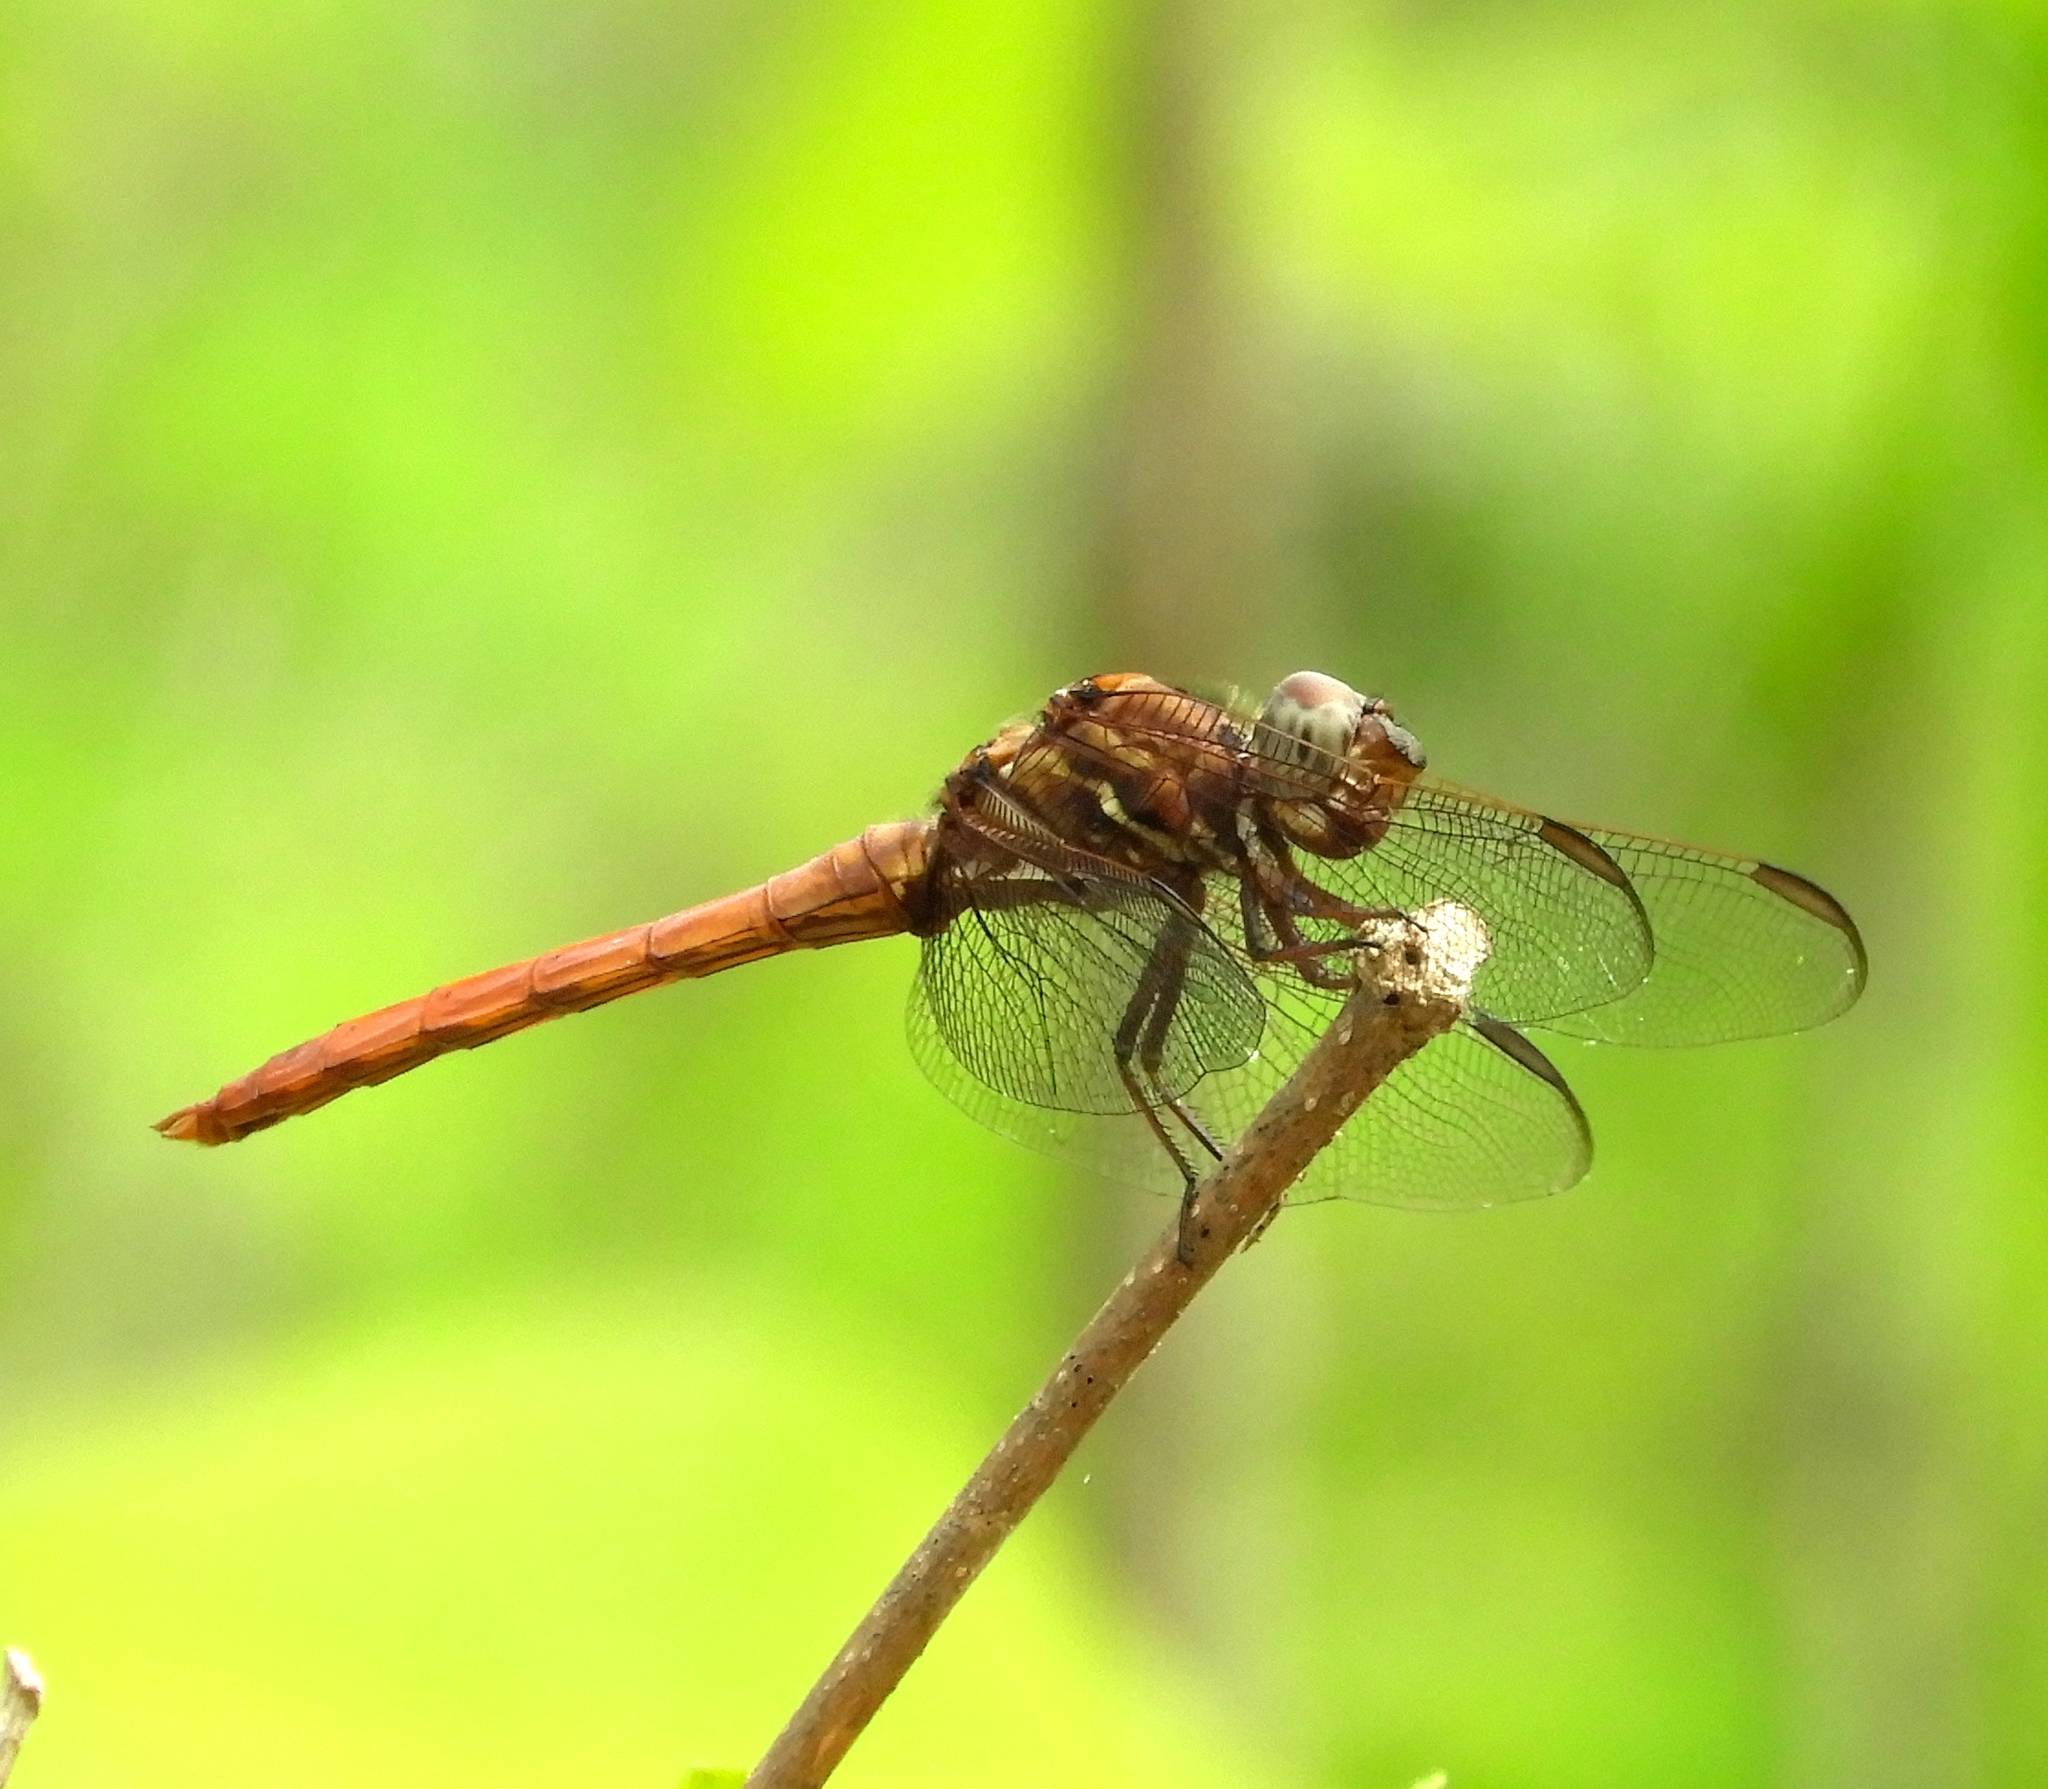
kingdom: Animalia
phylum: Arthropoda
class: Insecta
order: Odonata
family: Libellulidae
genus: Orthemis
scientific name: Orthemis ferruginea
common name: Roseate skimmer
